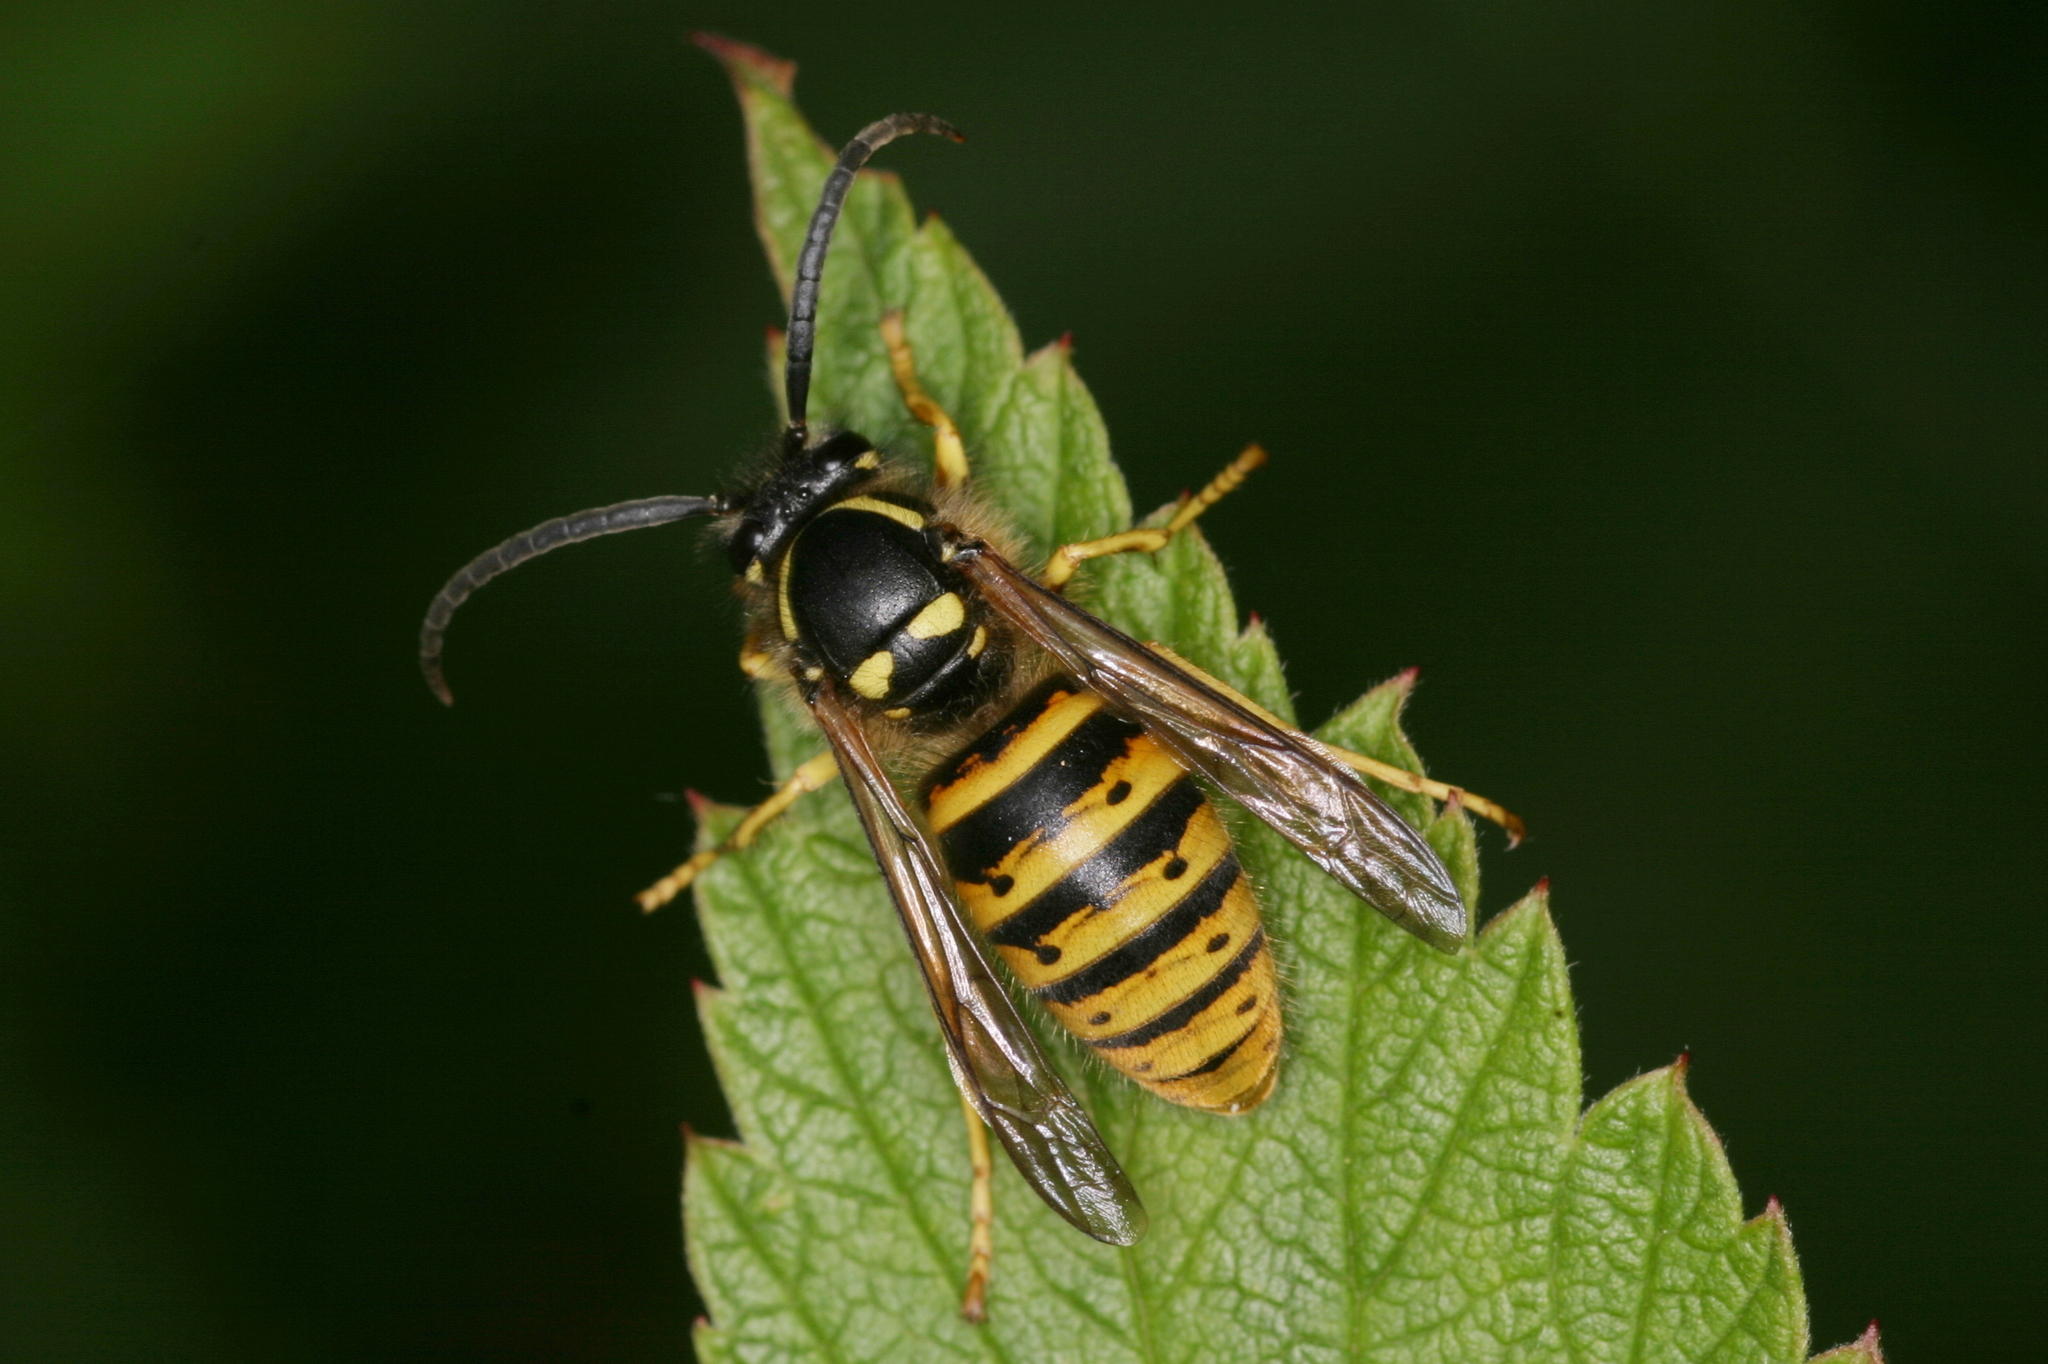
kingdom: Animalia
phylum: Arthropoda
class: Insecta
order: Hymenoptera
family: Vespidae
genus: Dolichovespula
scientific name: Dolichovespula saxonica
